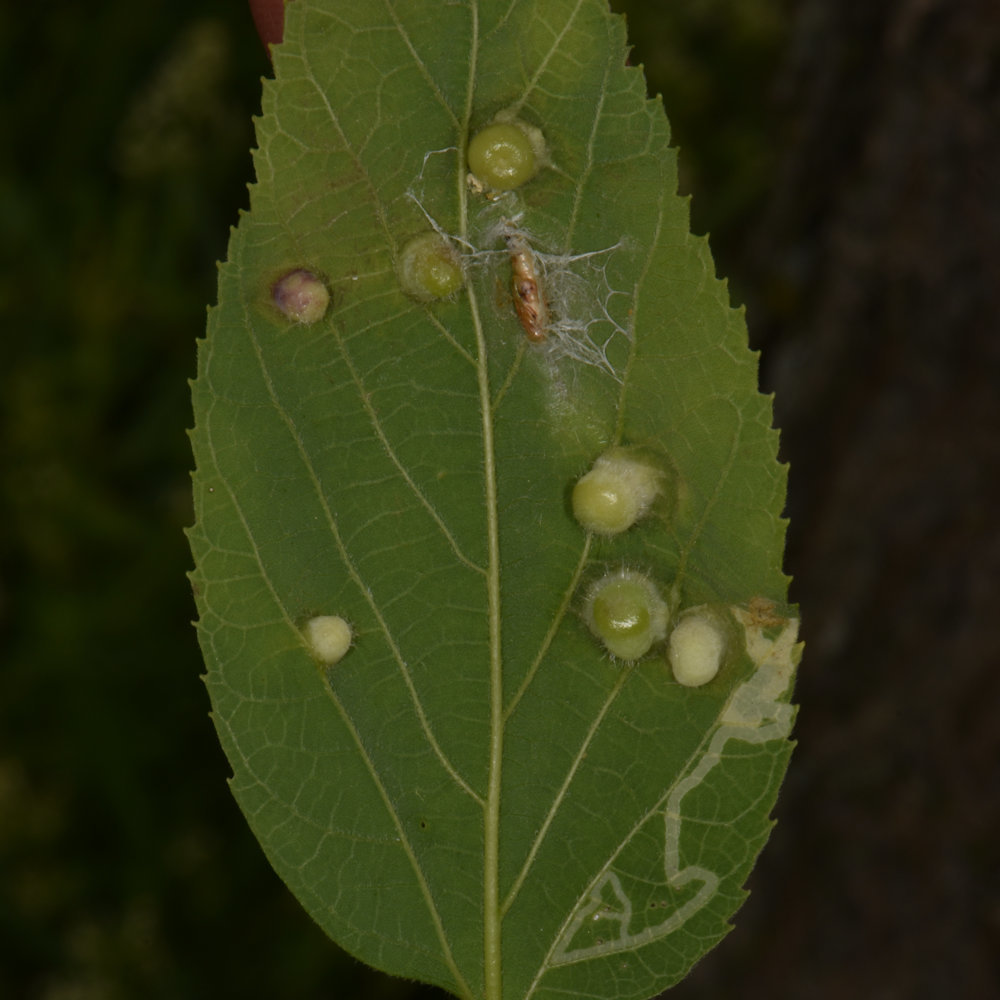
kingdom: Animalia
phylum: Arthropoda
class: Insecta
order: Hemiptera
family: Aphalaridae
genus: Pachypsylla
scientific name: Pachypsylla celtidismamma
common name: Hackberry nipplegall psyllid
